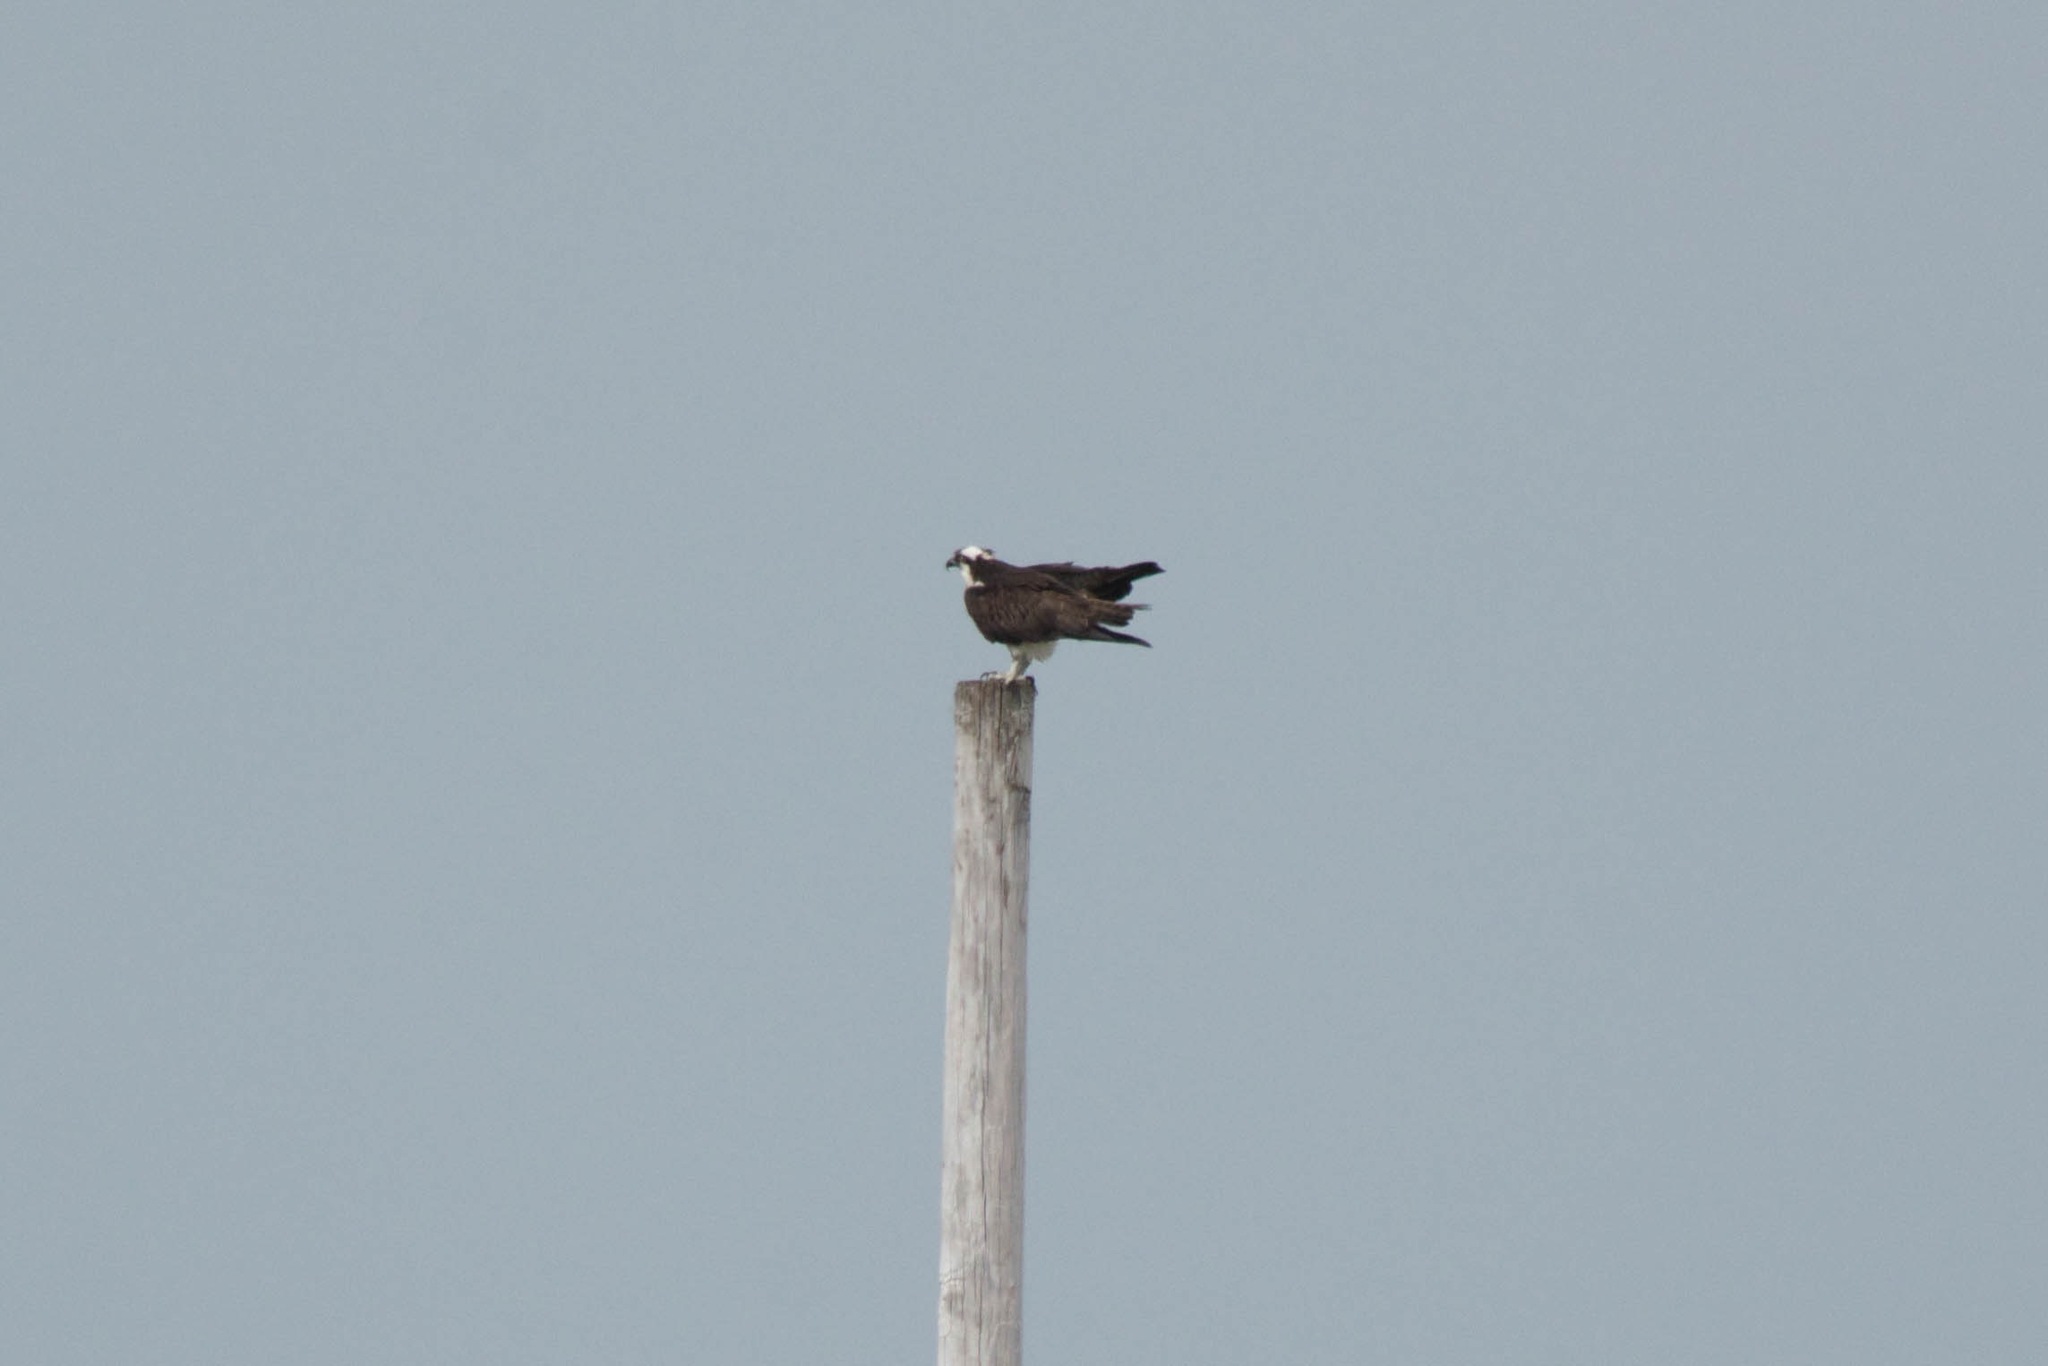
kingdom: Animalia
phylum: Chordata
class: Aves
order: Accipitriformes
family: Pandionidae
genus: Pandion
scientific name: Pandion haliaetus
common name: Osprey
